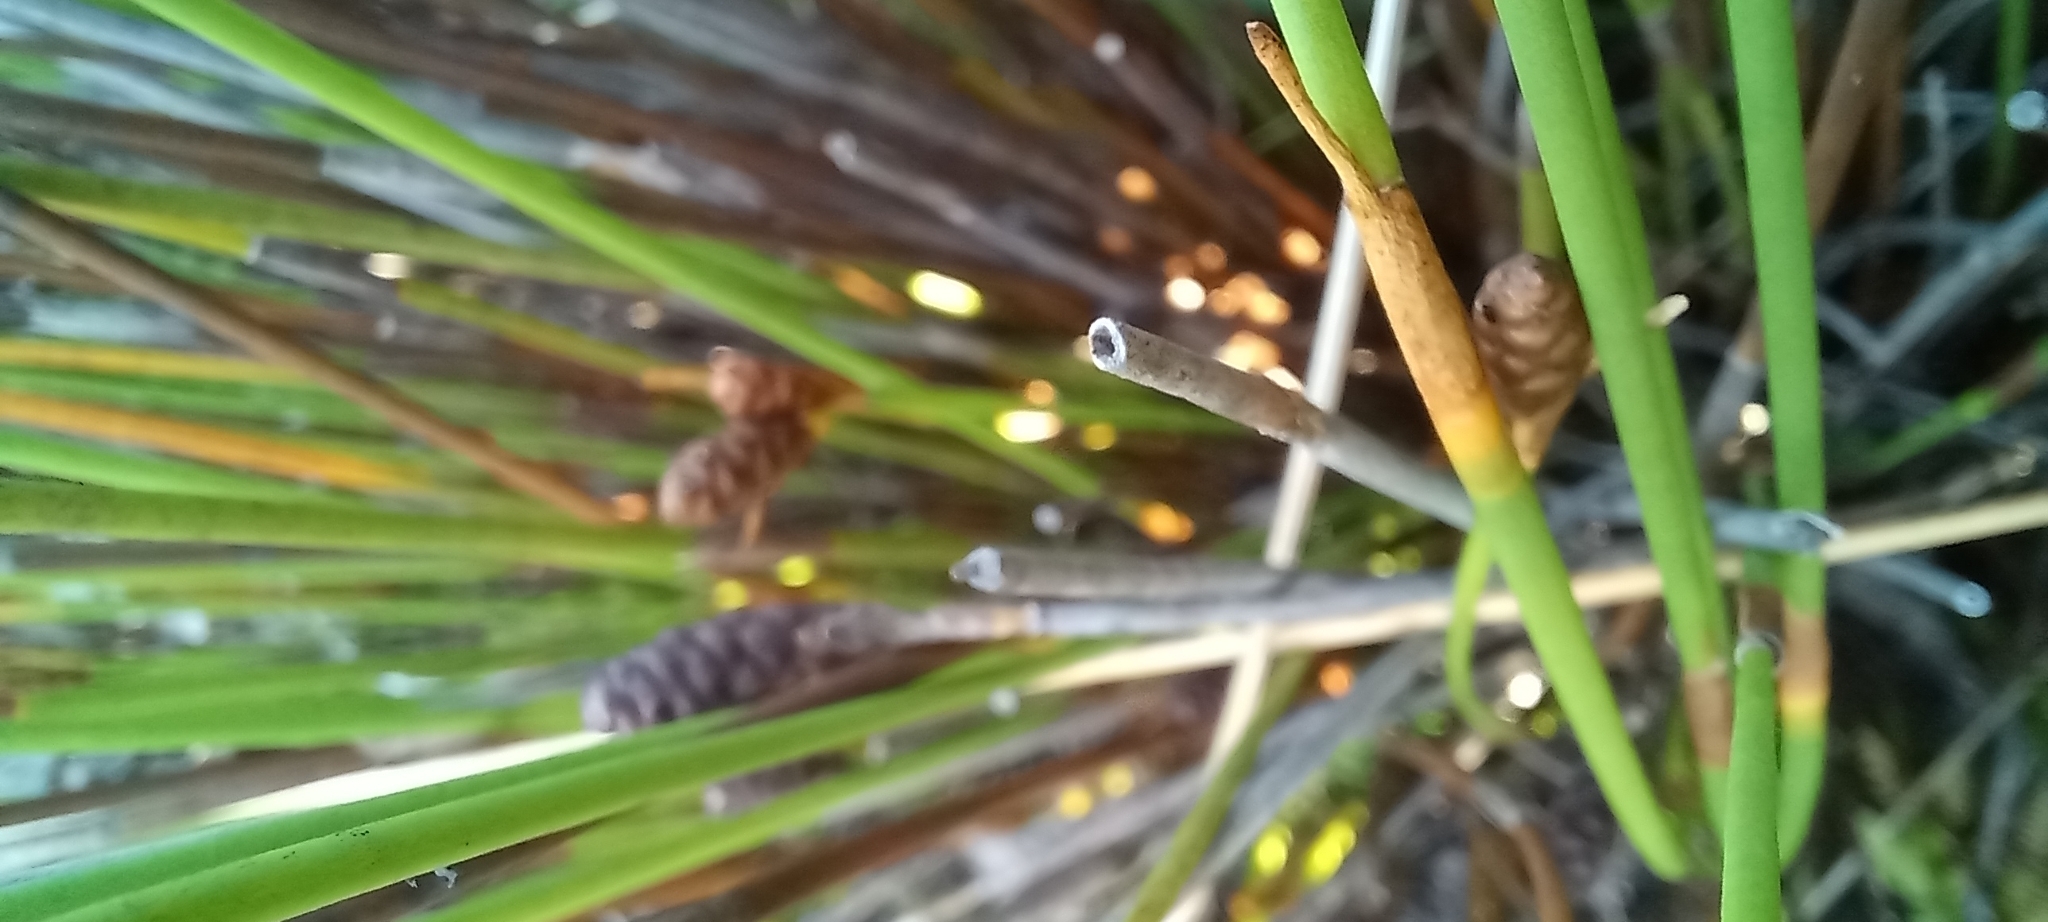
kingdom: Plantae
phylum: Tracheophyta
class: Liliopsida
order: Poales
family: Restionaceae
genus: Nevillea
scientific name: Nevillea obtusissimus
